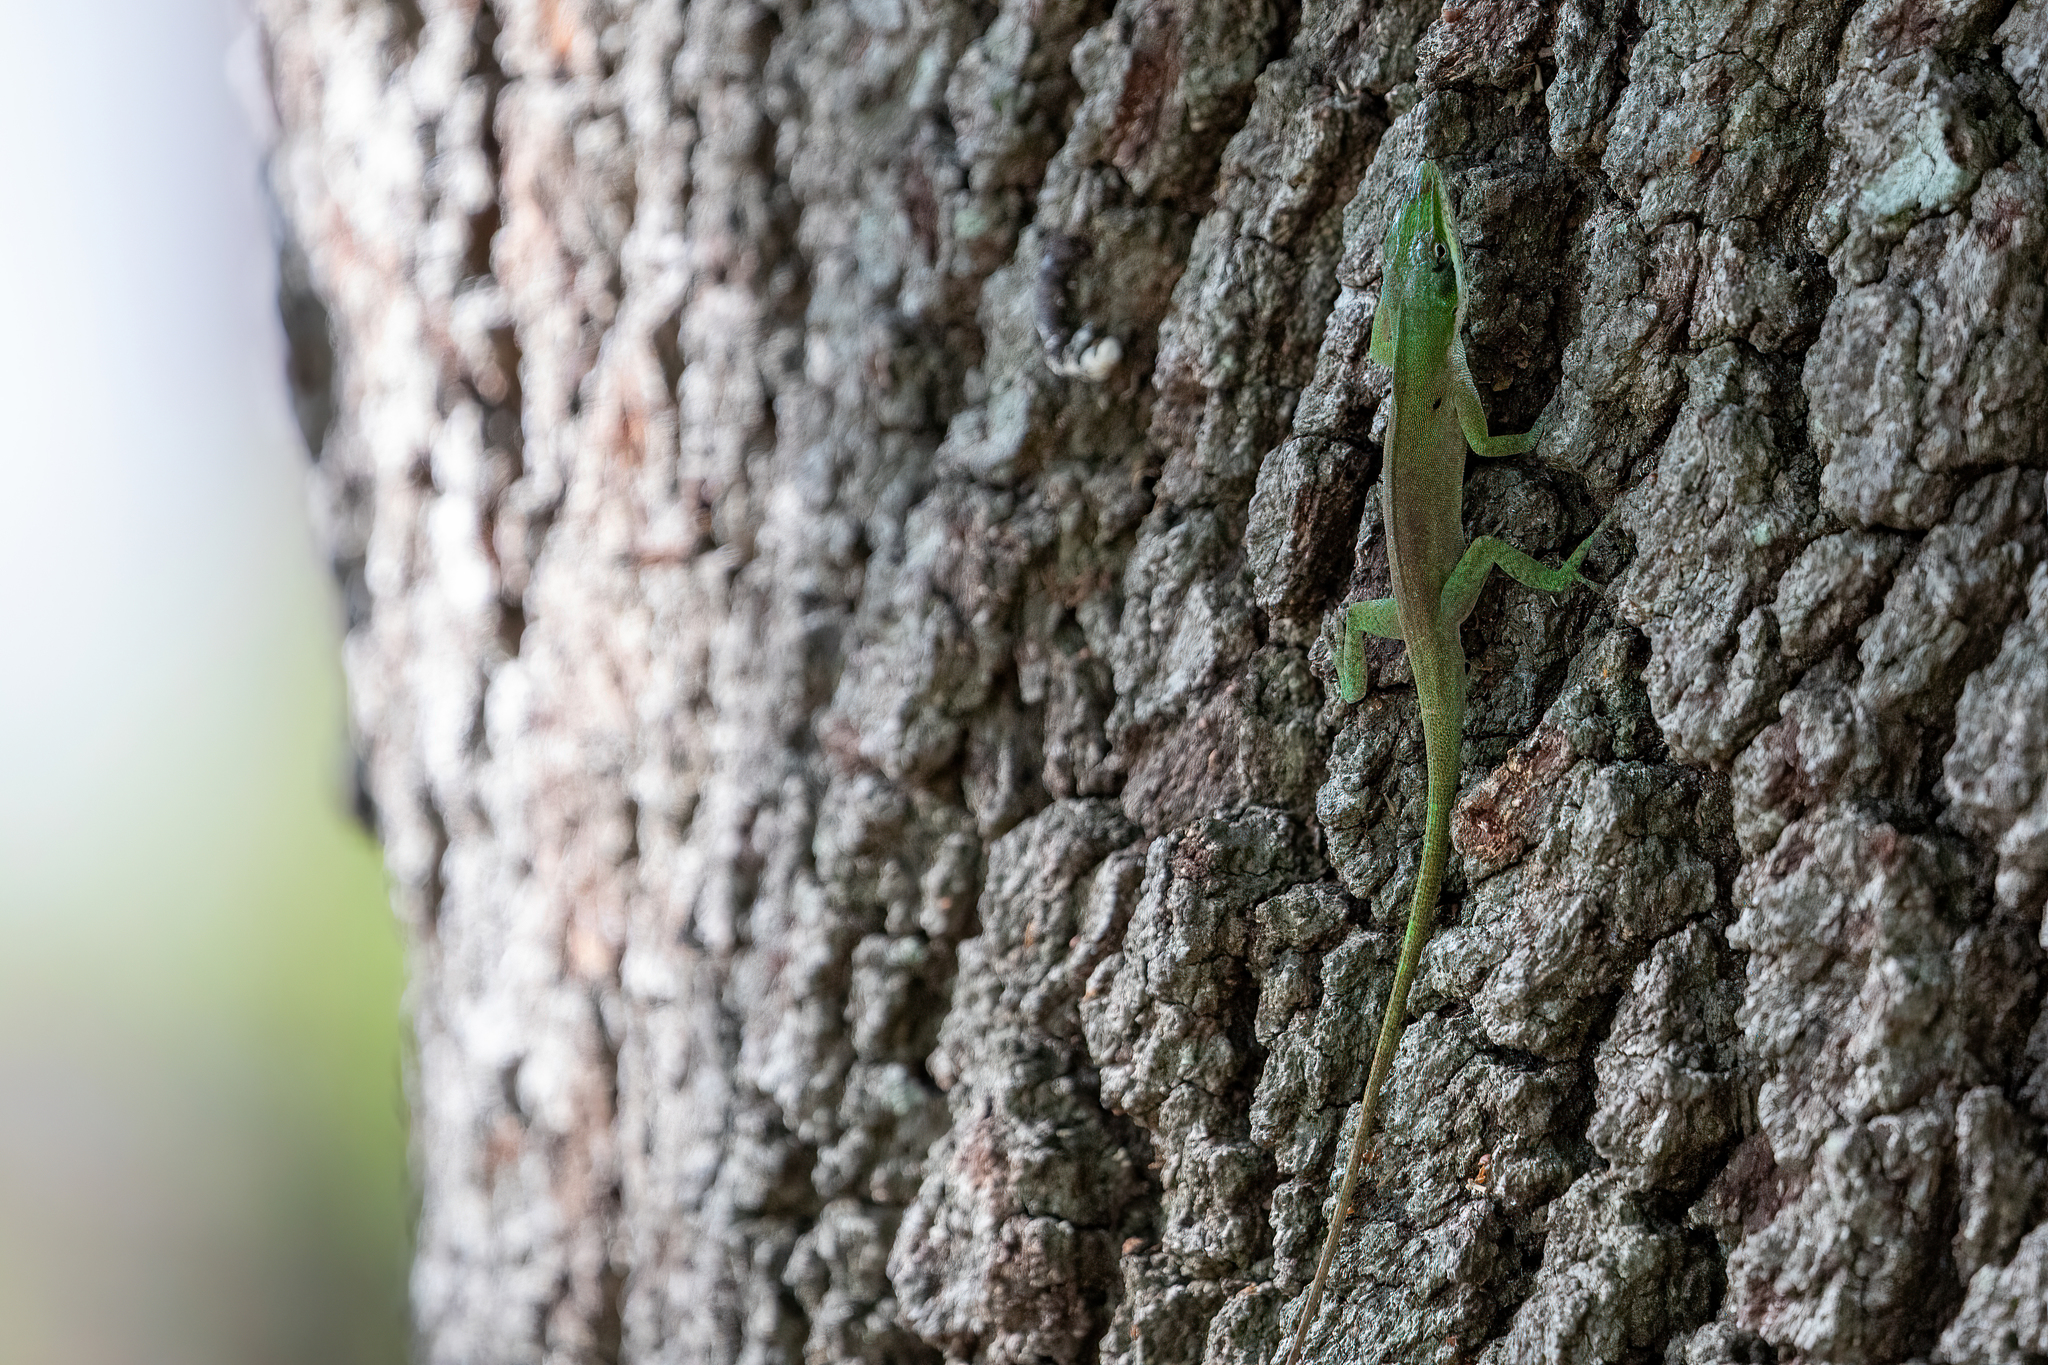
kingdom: Animalia
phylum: Chordata
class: Squamata
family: Dactyloidae
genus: Anolis
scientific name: Anolis carolinensis
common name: Green anole
